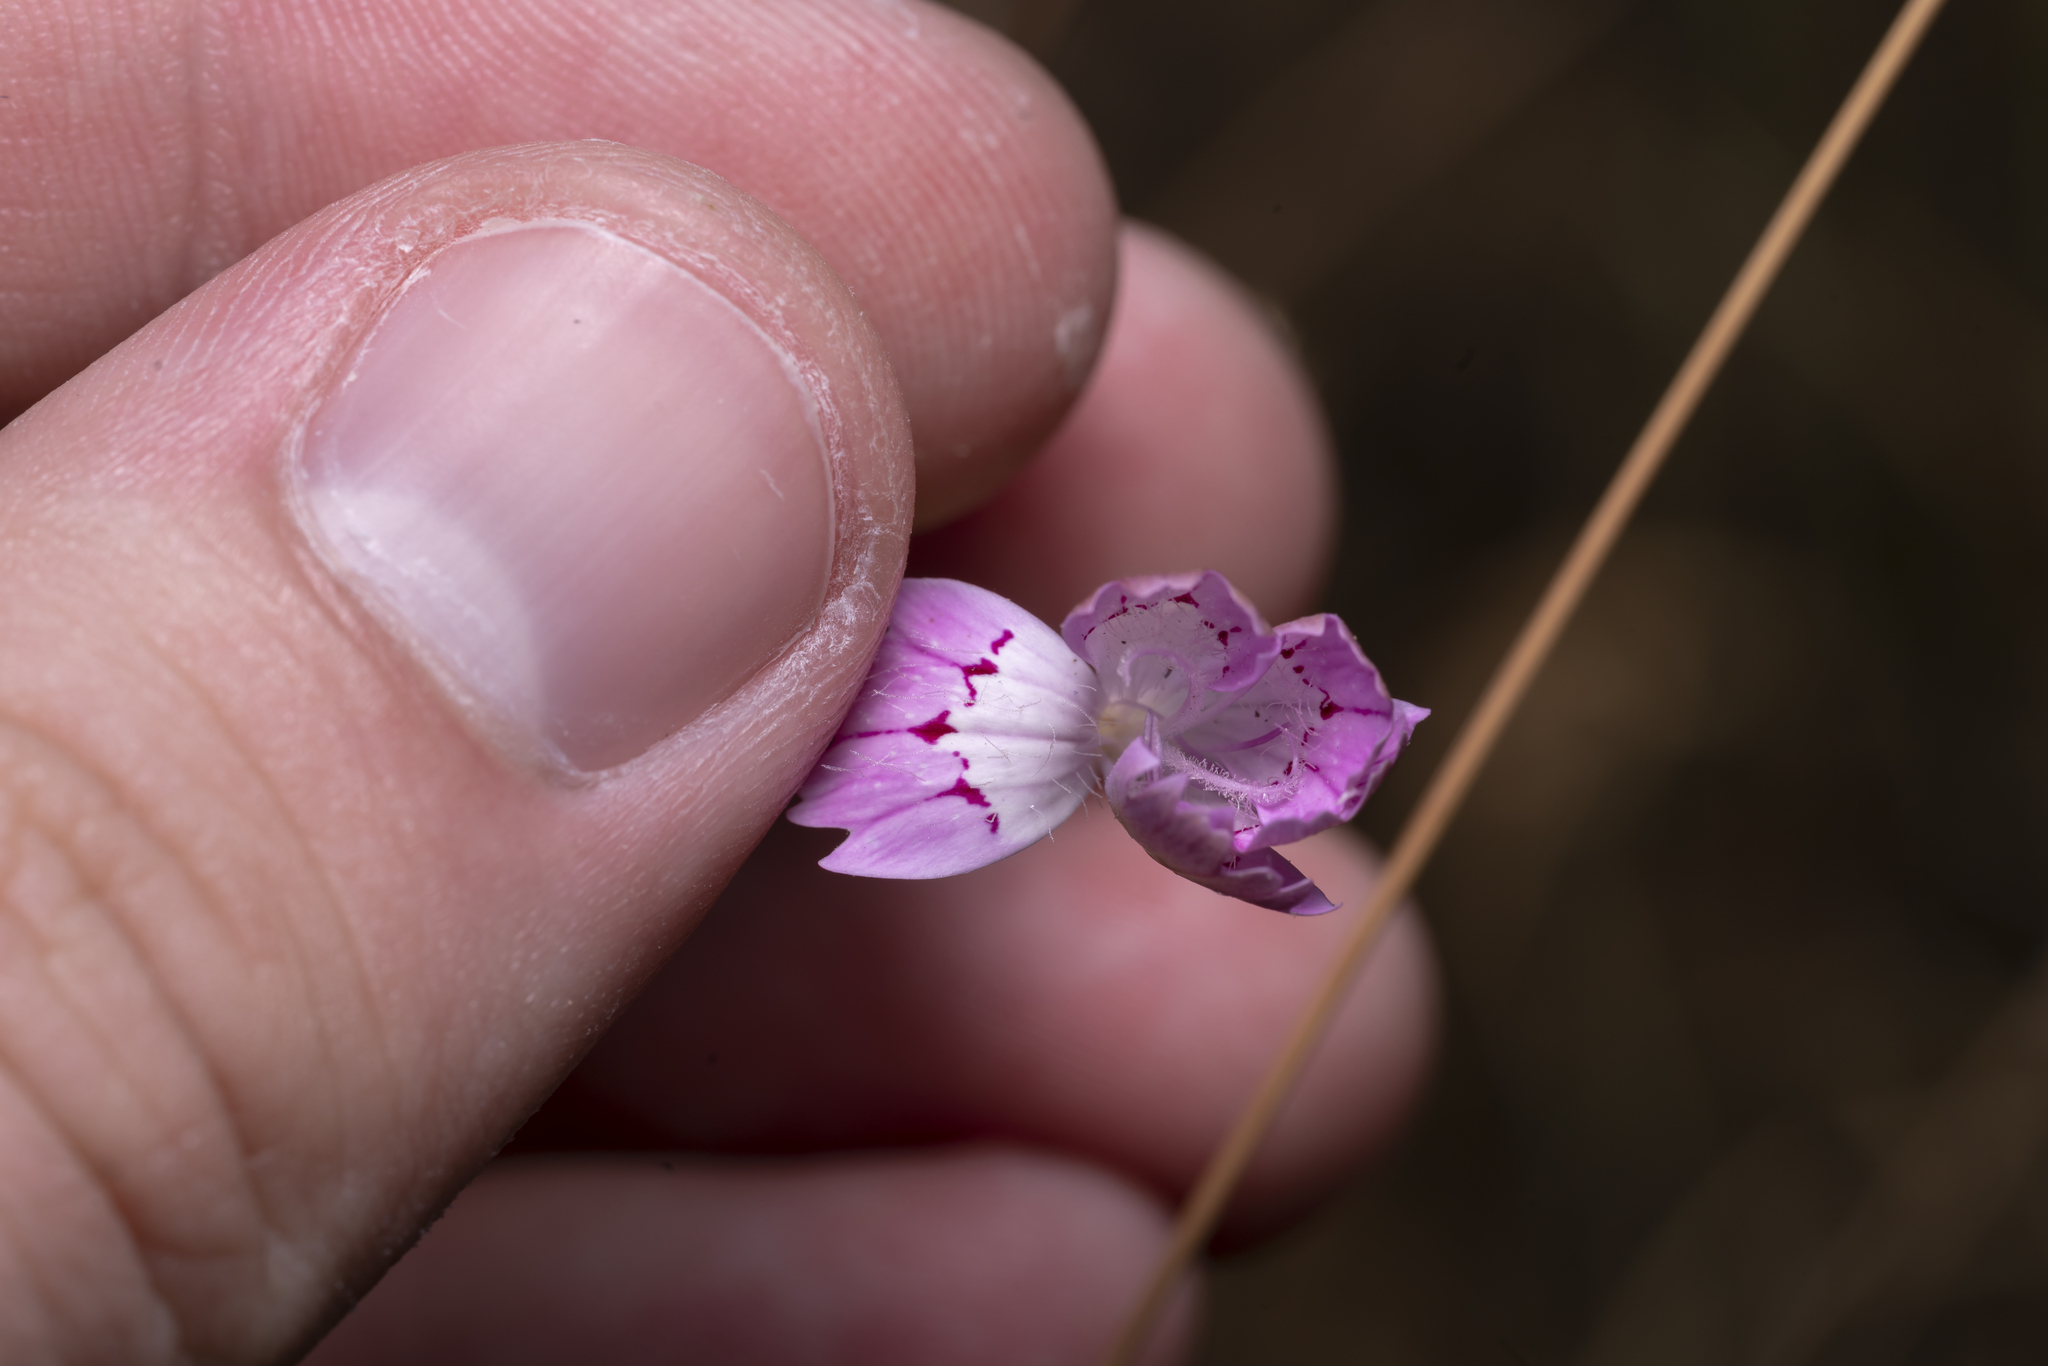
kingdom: Plantae
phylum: Tracheophyta
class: Magnoliopsida
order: Caryophyllales
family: Caryophyllaceae
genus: Dianthus
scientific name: Dianthus strictus
